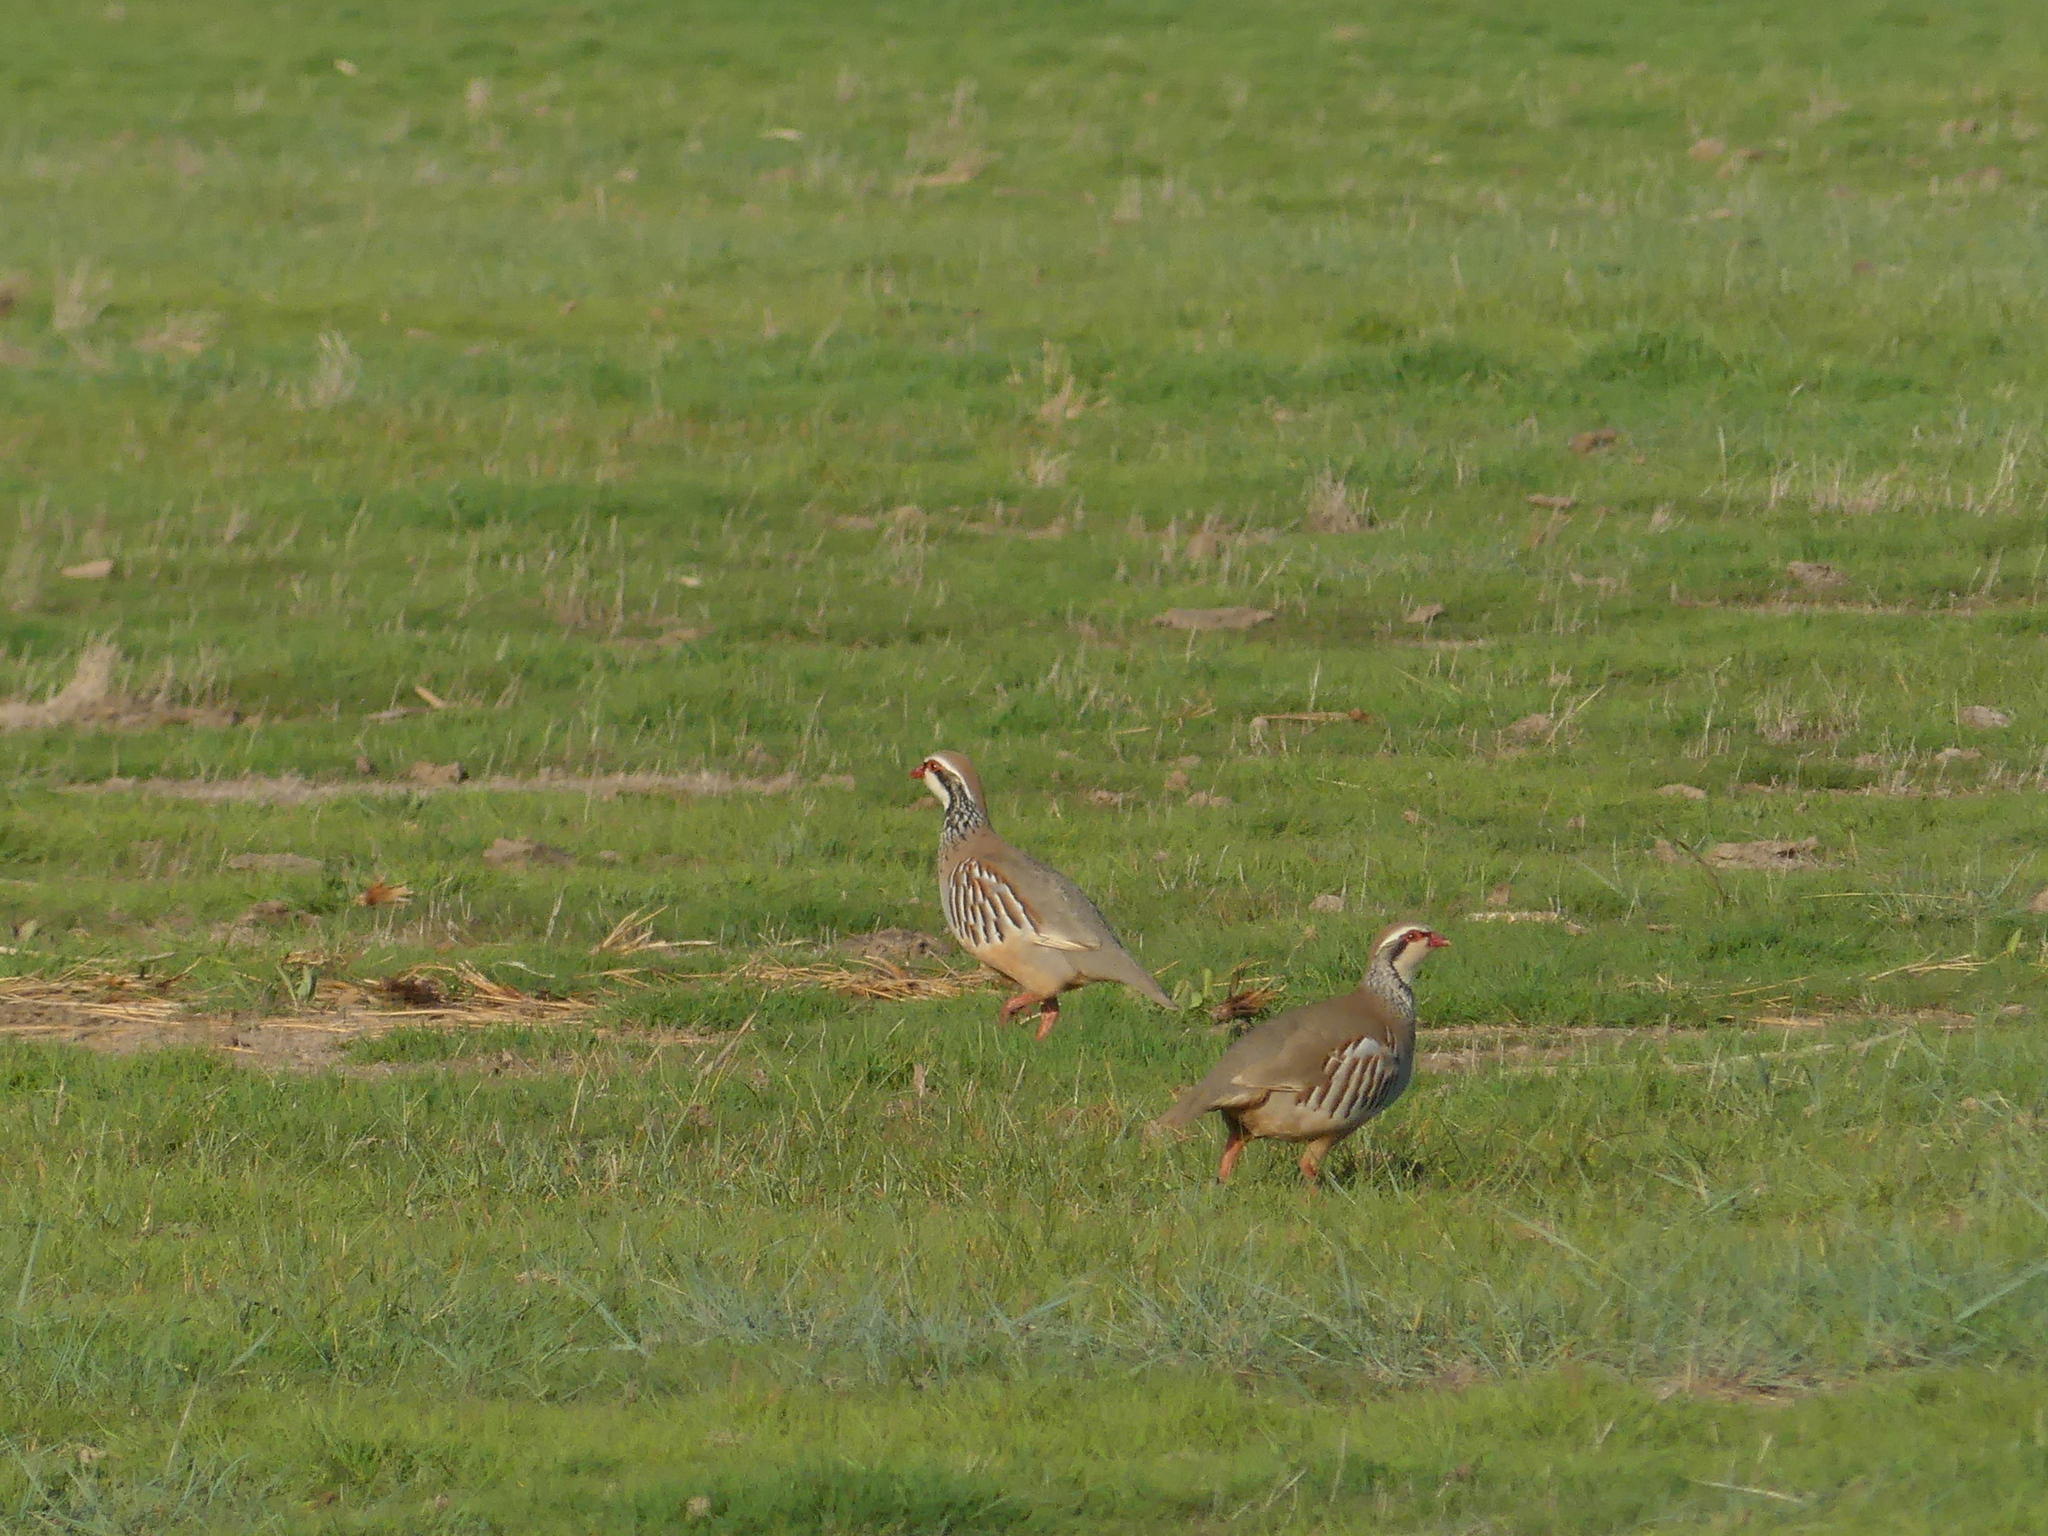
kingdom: Animalia
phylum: Chordata
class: Aves
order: Galliformes
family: Phasianidae
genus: Alectoris
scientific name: Alectoris rufa
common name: Red-legged partridge
